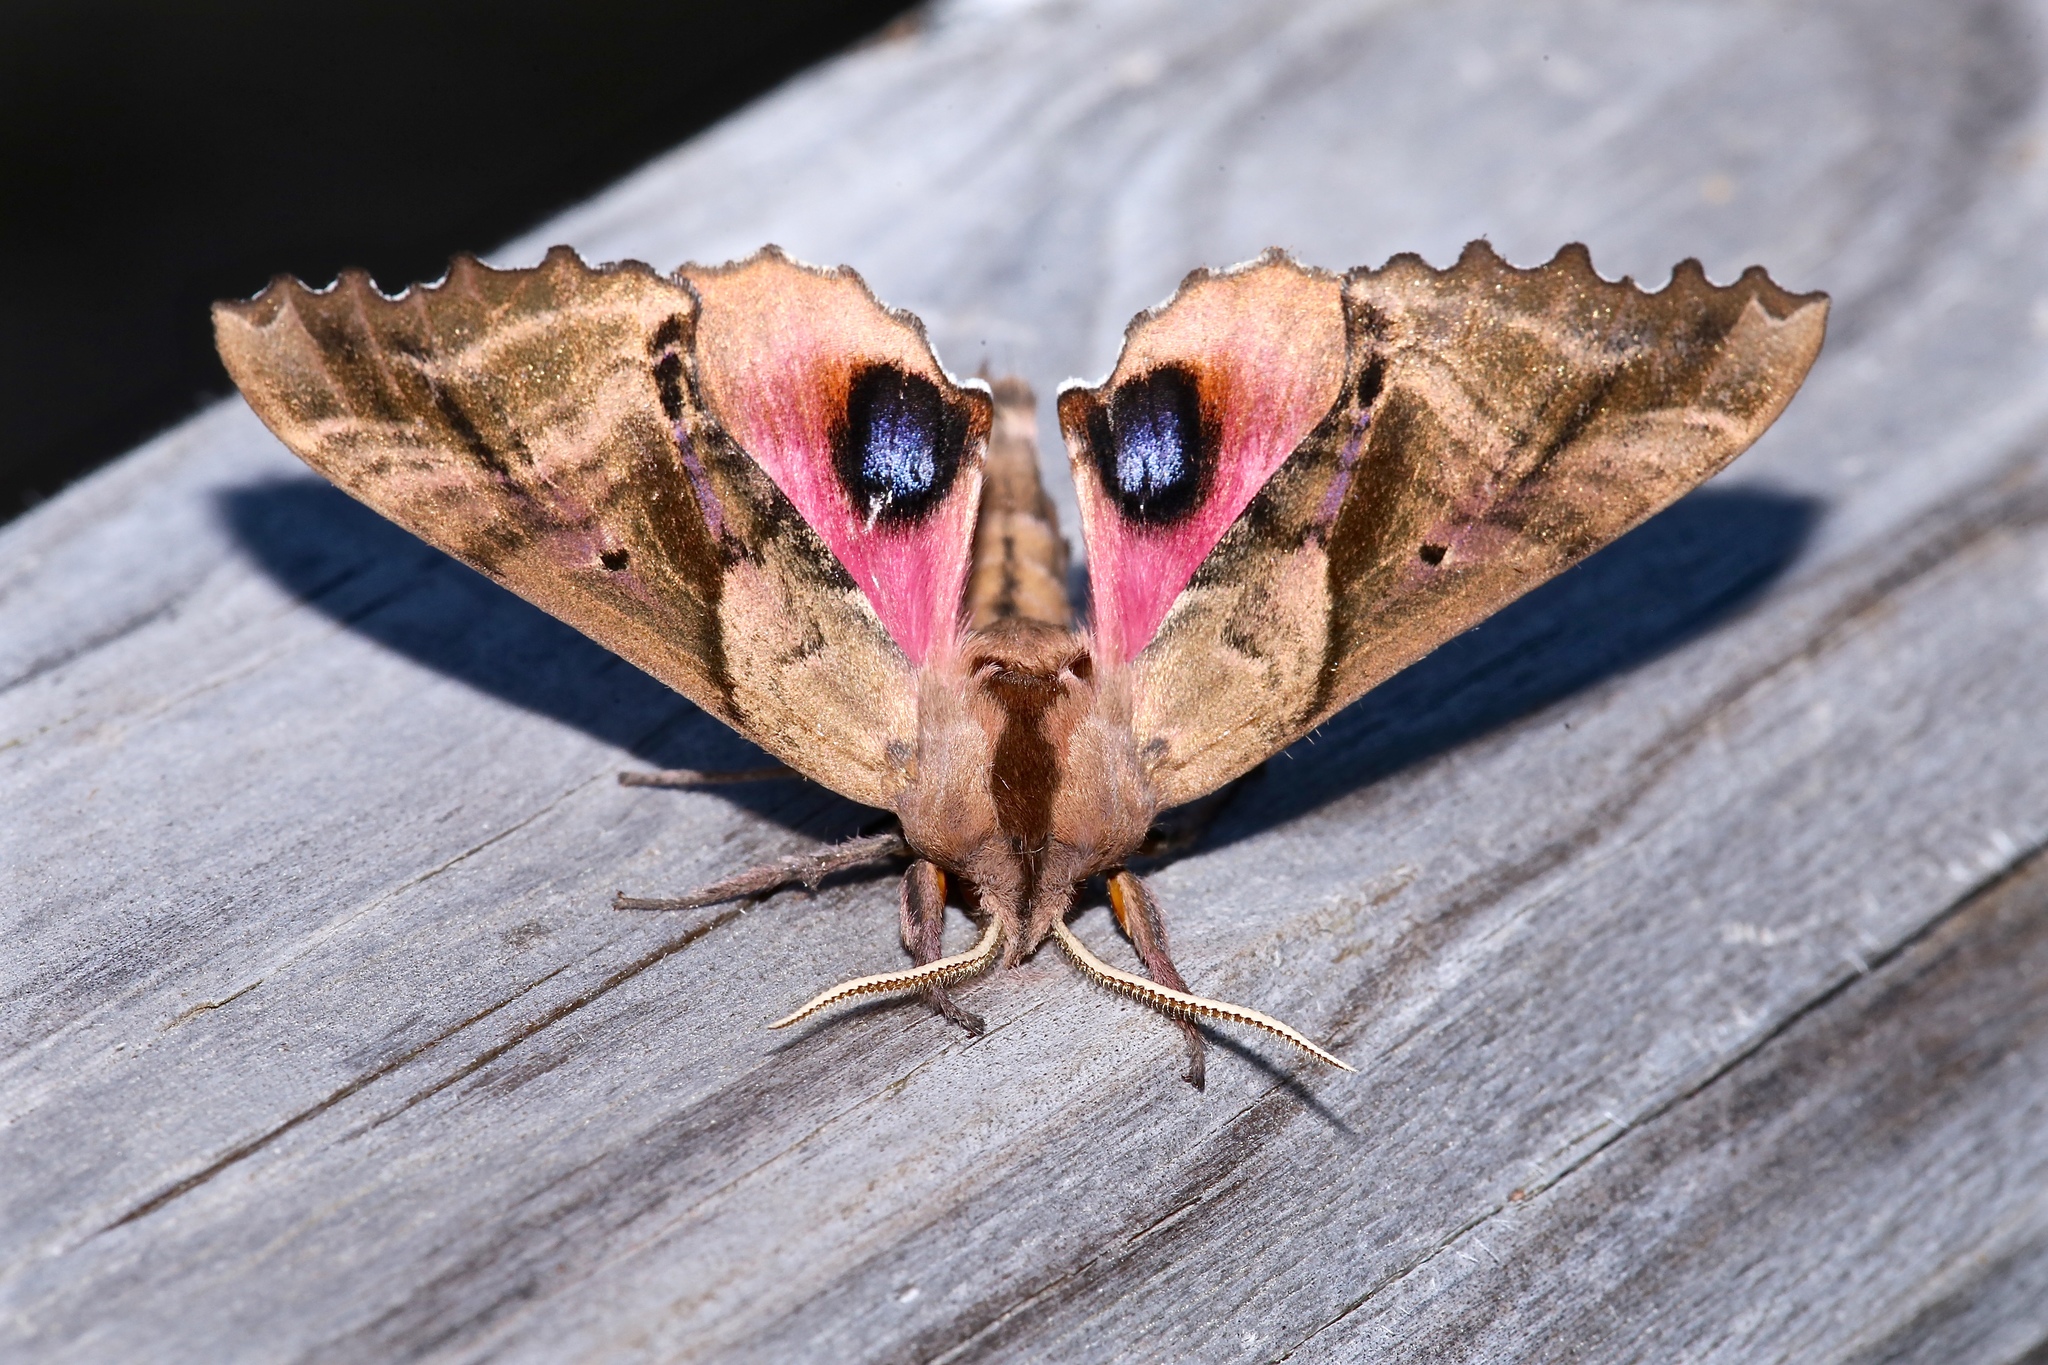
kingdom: Animalia
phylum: Arthropoda
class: Insecta
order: Lepidoptera
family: Sphingidae
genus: Paonias
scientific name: Paonias excaecata
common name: Blind-eyed sphinx
